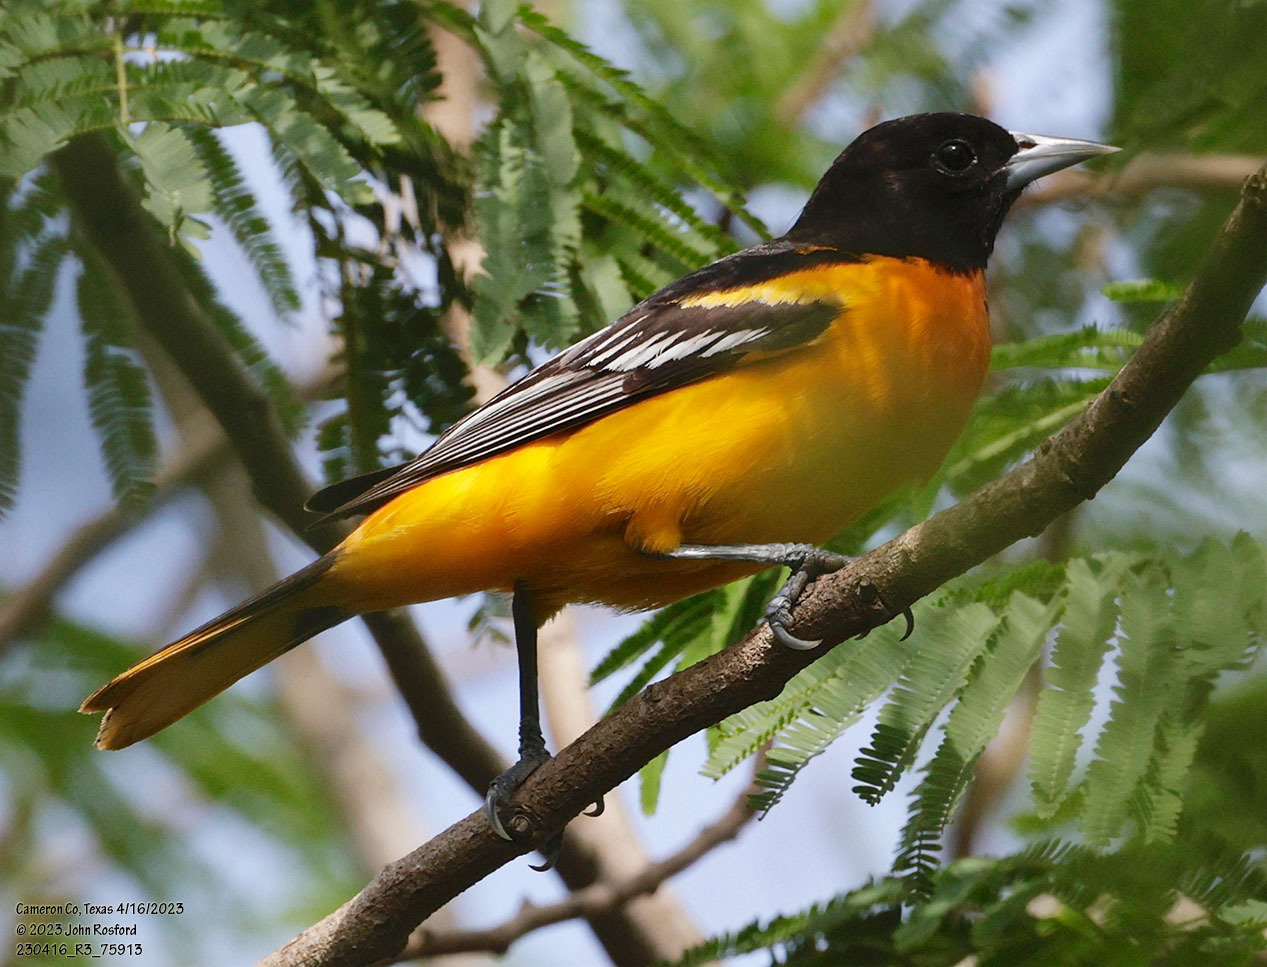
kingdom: Animalia
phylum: Chordata
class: Aves
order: Passeriformes
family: Icteridae
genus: Icterus
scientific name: Icterus galbula
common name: Baltimore oriole
